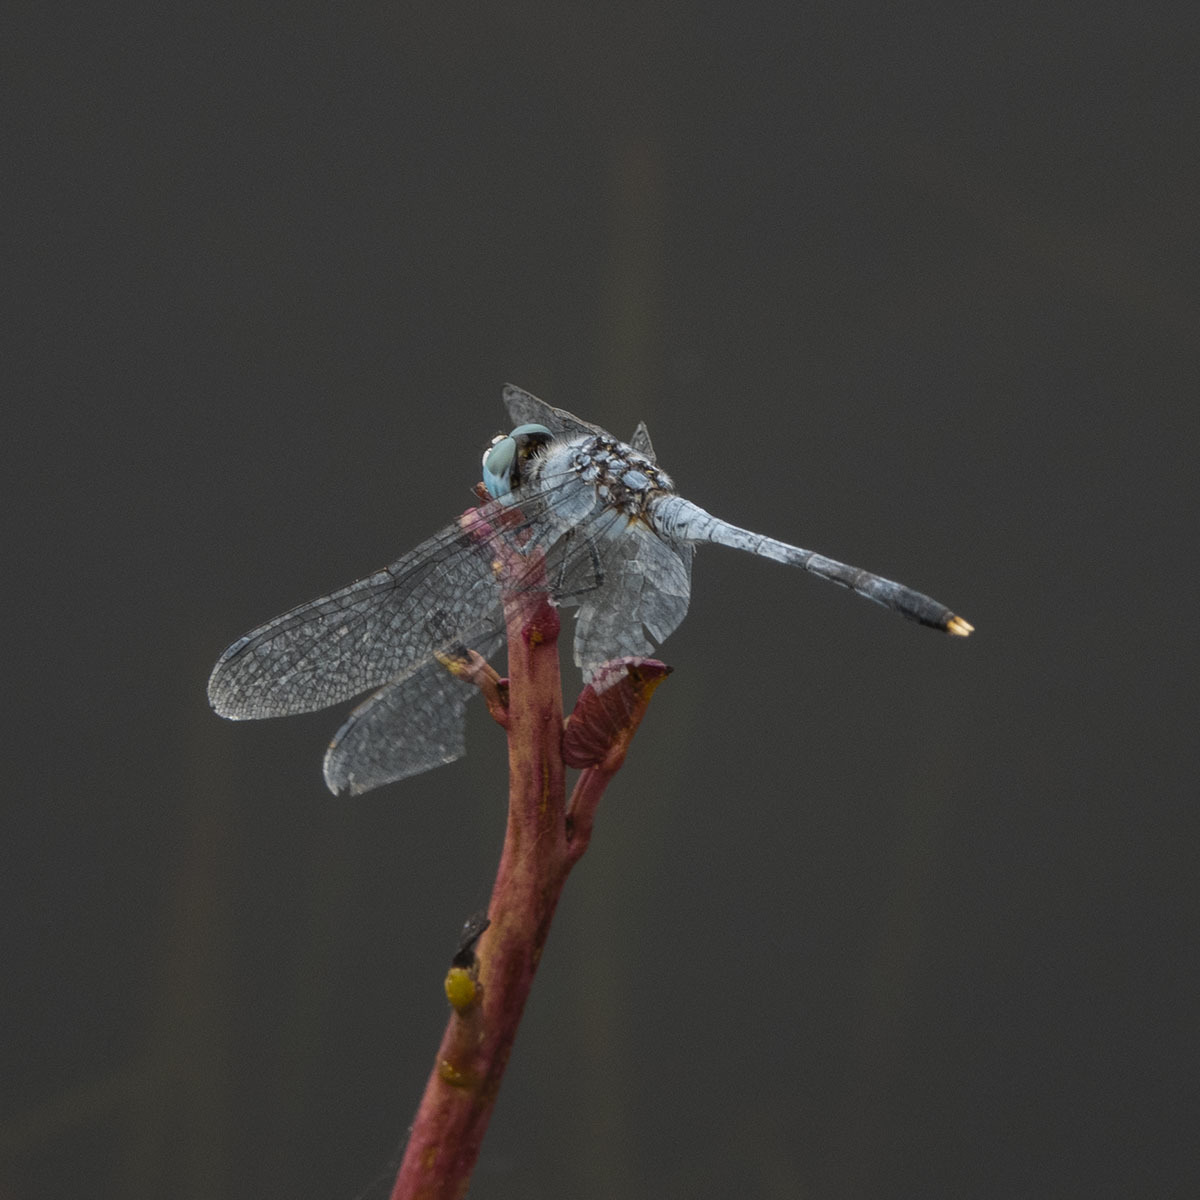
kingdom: Animalia
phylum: Arthropoda
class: Insecta
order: Odonata
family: Libellulidae
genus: Diplacodes
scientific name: Diplacodes trivialis
